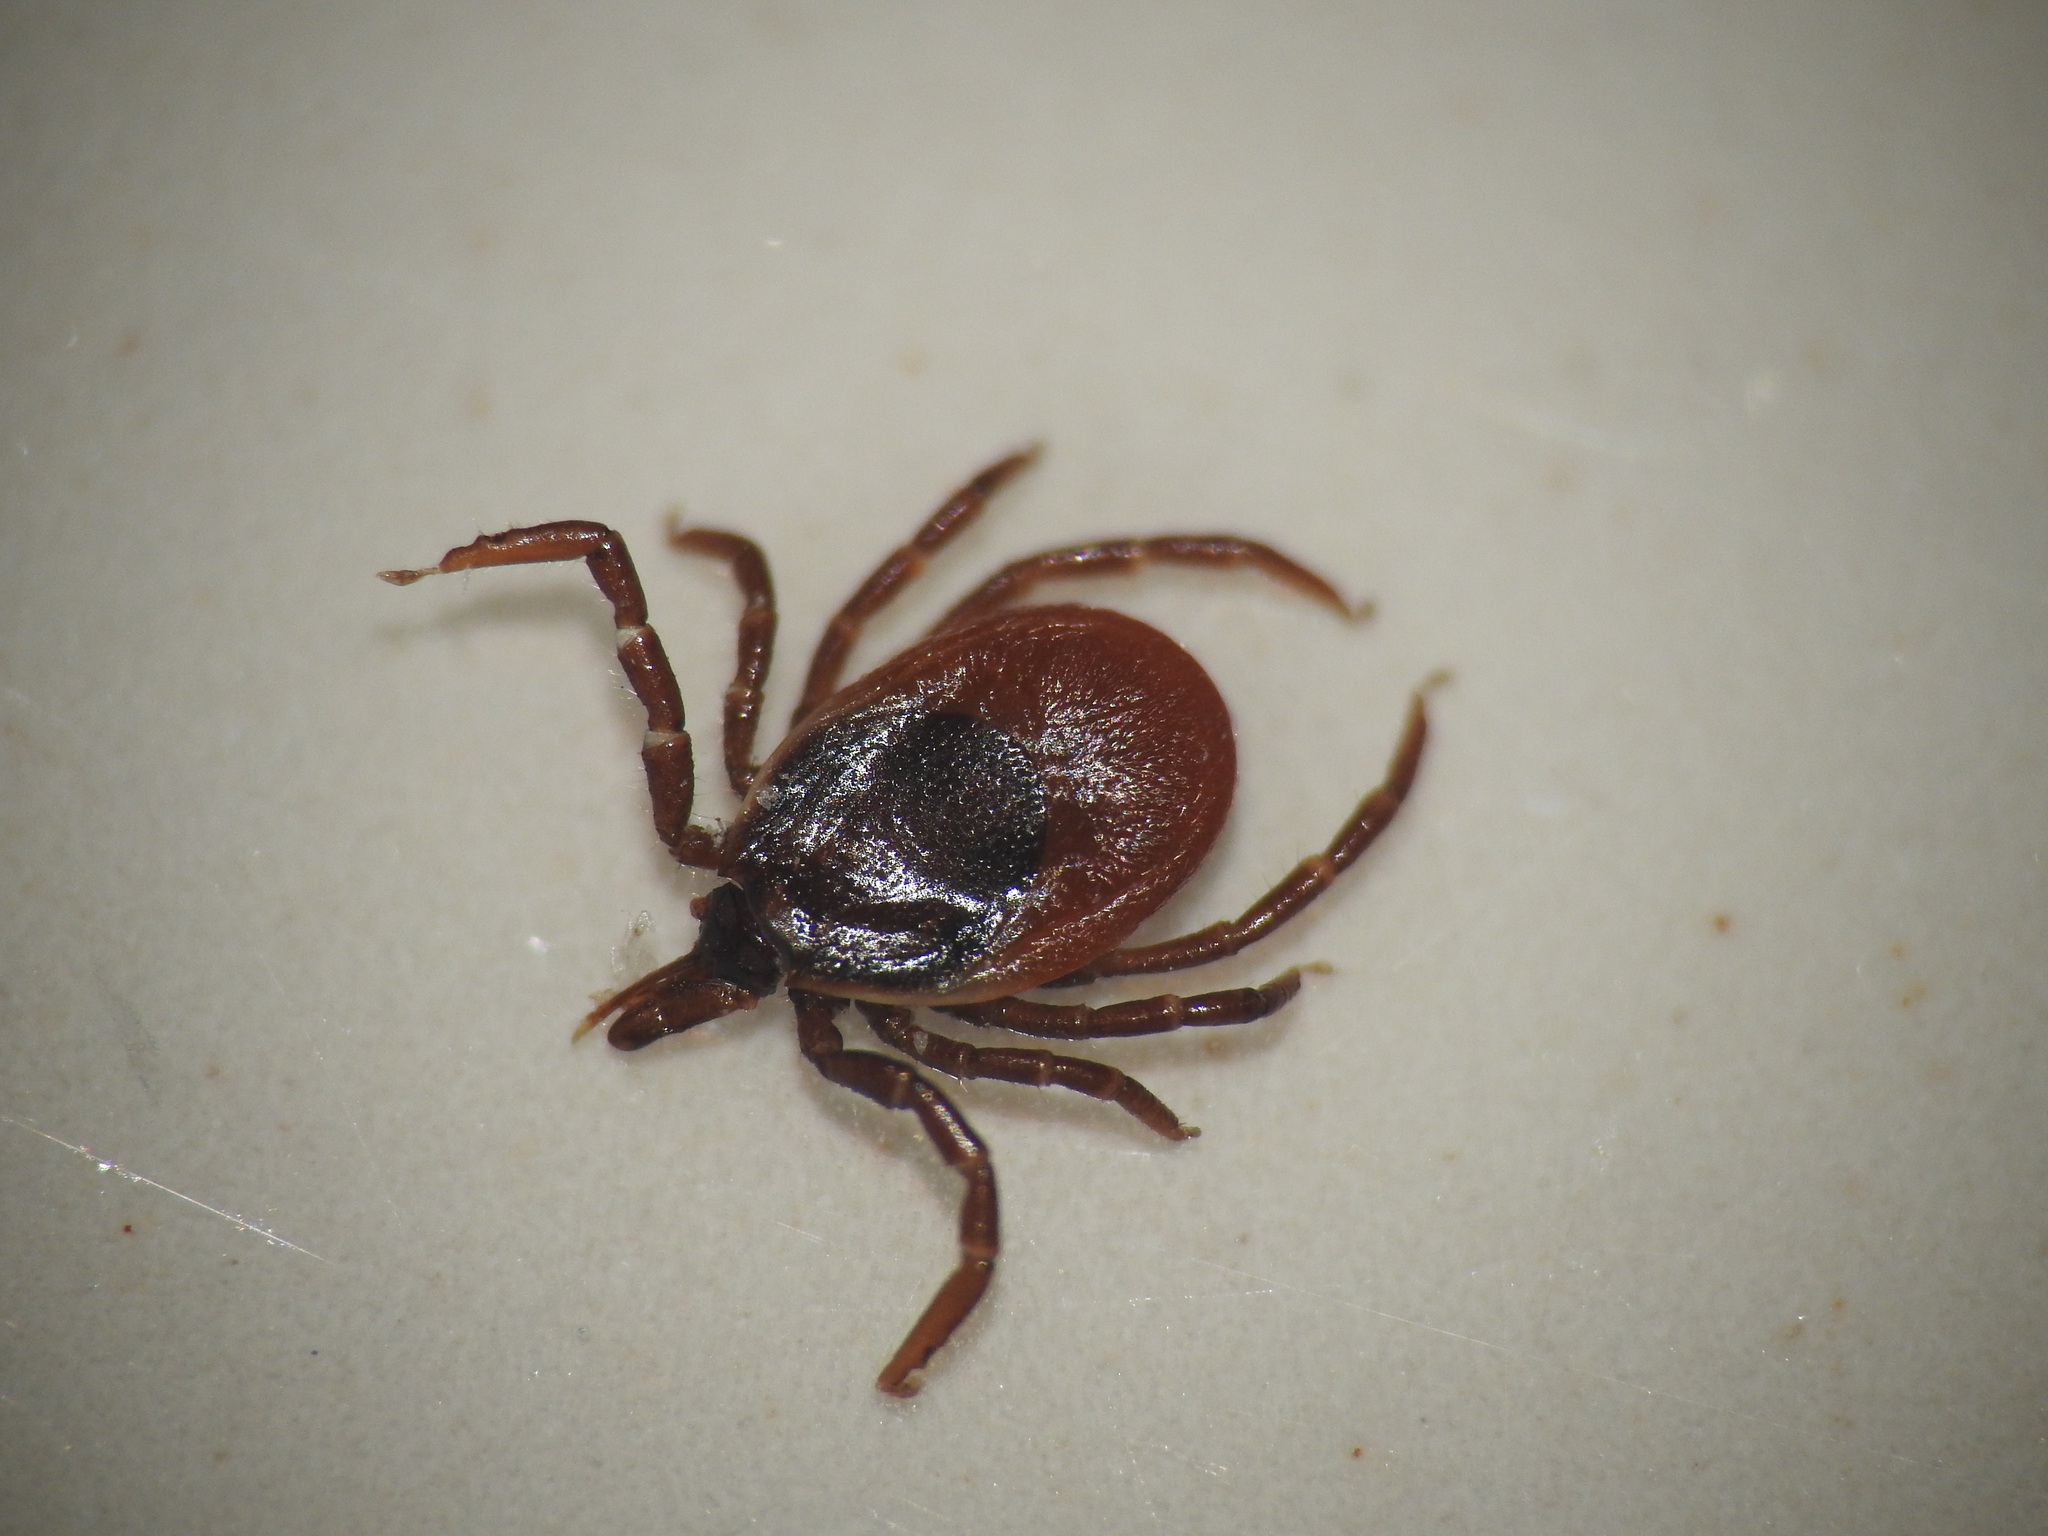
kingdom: Animalia
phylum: Arthropoda
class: Arachnida
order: Ixodida
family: Ixodidae
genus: Ixodes
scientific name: Ixodes ricinus
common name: Castor bean tick
